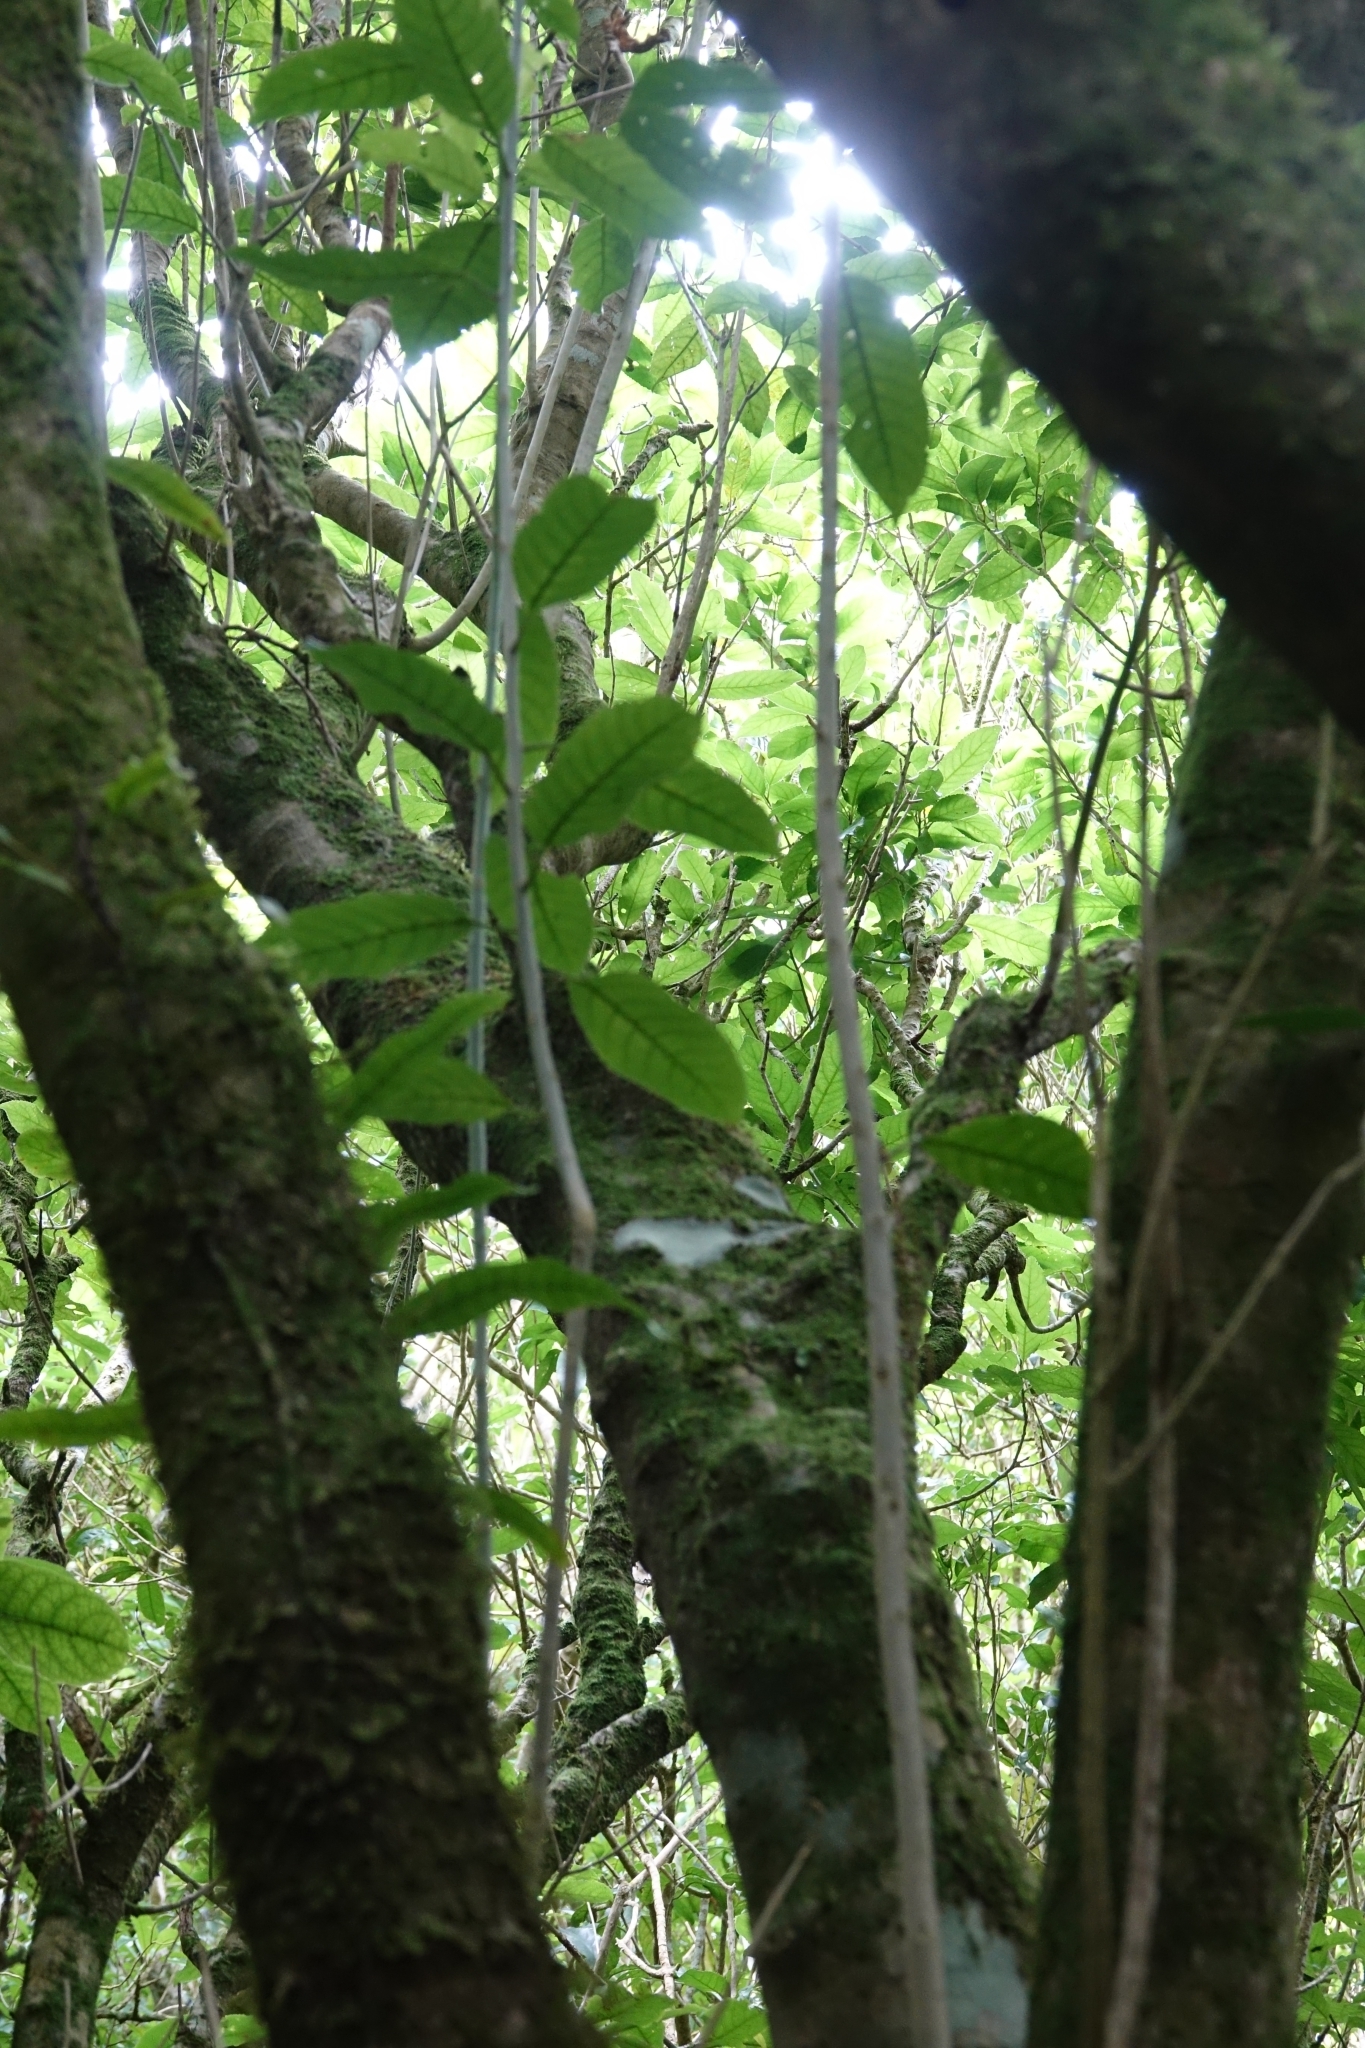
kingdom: Plantae
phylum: Tracheophyta
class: Magnoliopsida
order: Malpighiales
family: Violaceae
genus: Melicytus
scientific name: Melicytus ramiflorus
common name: Mahoe
